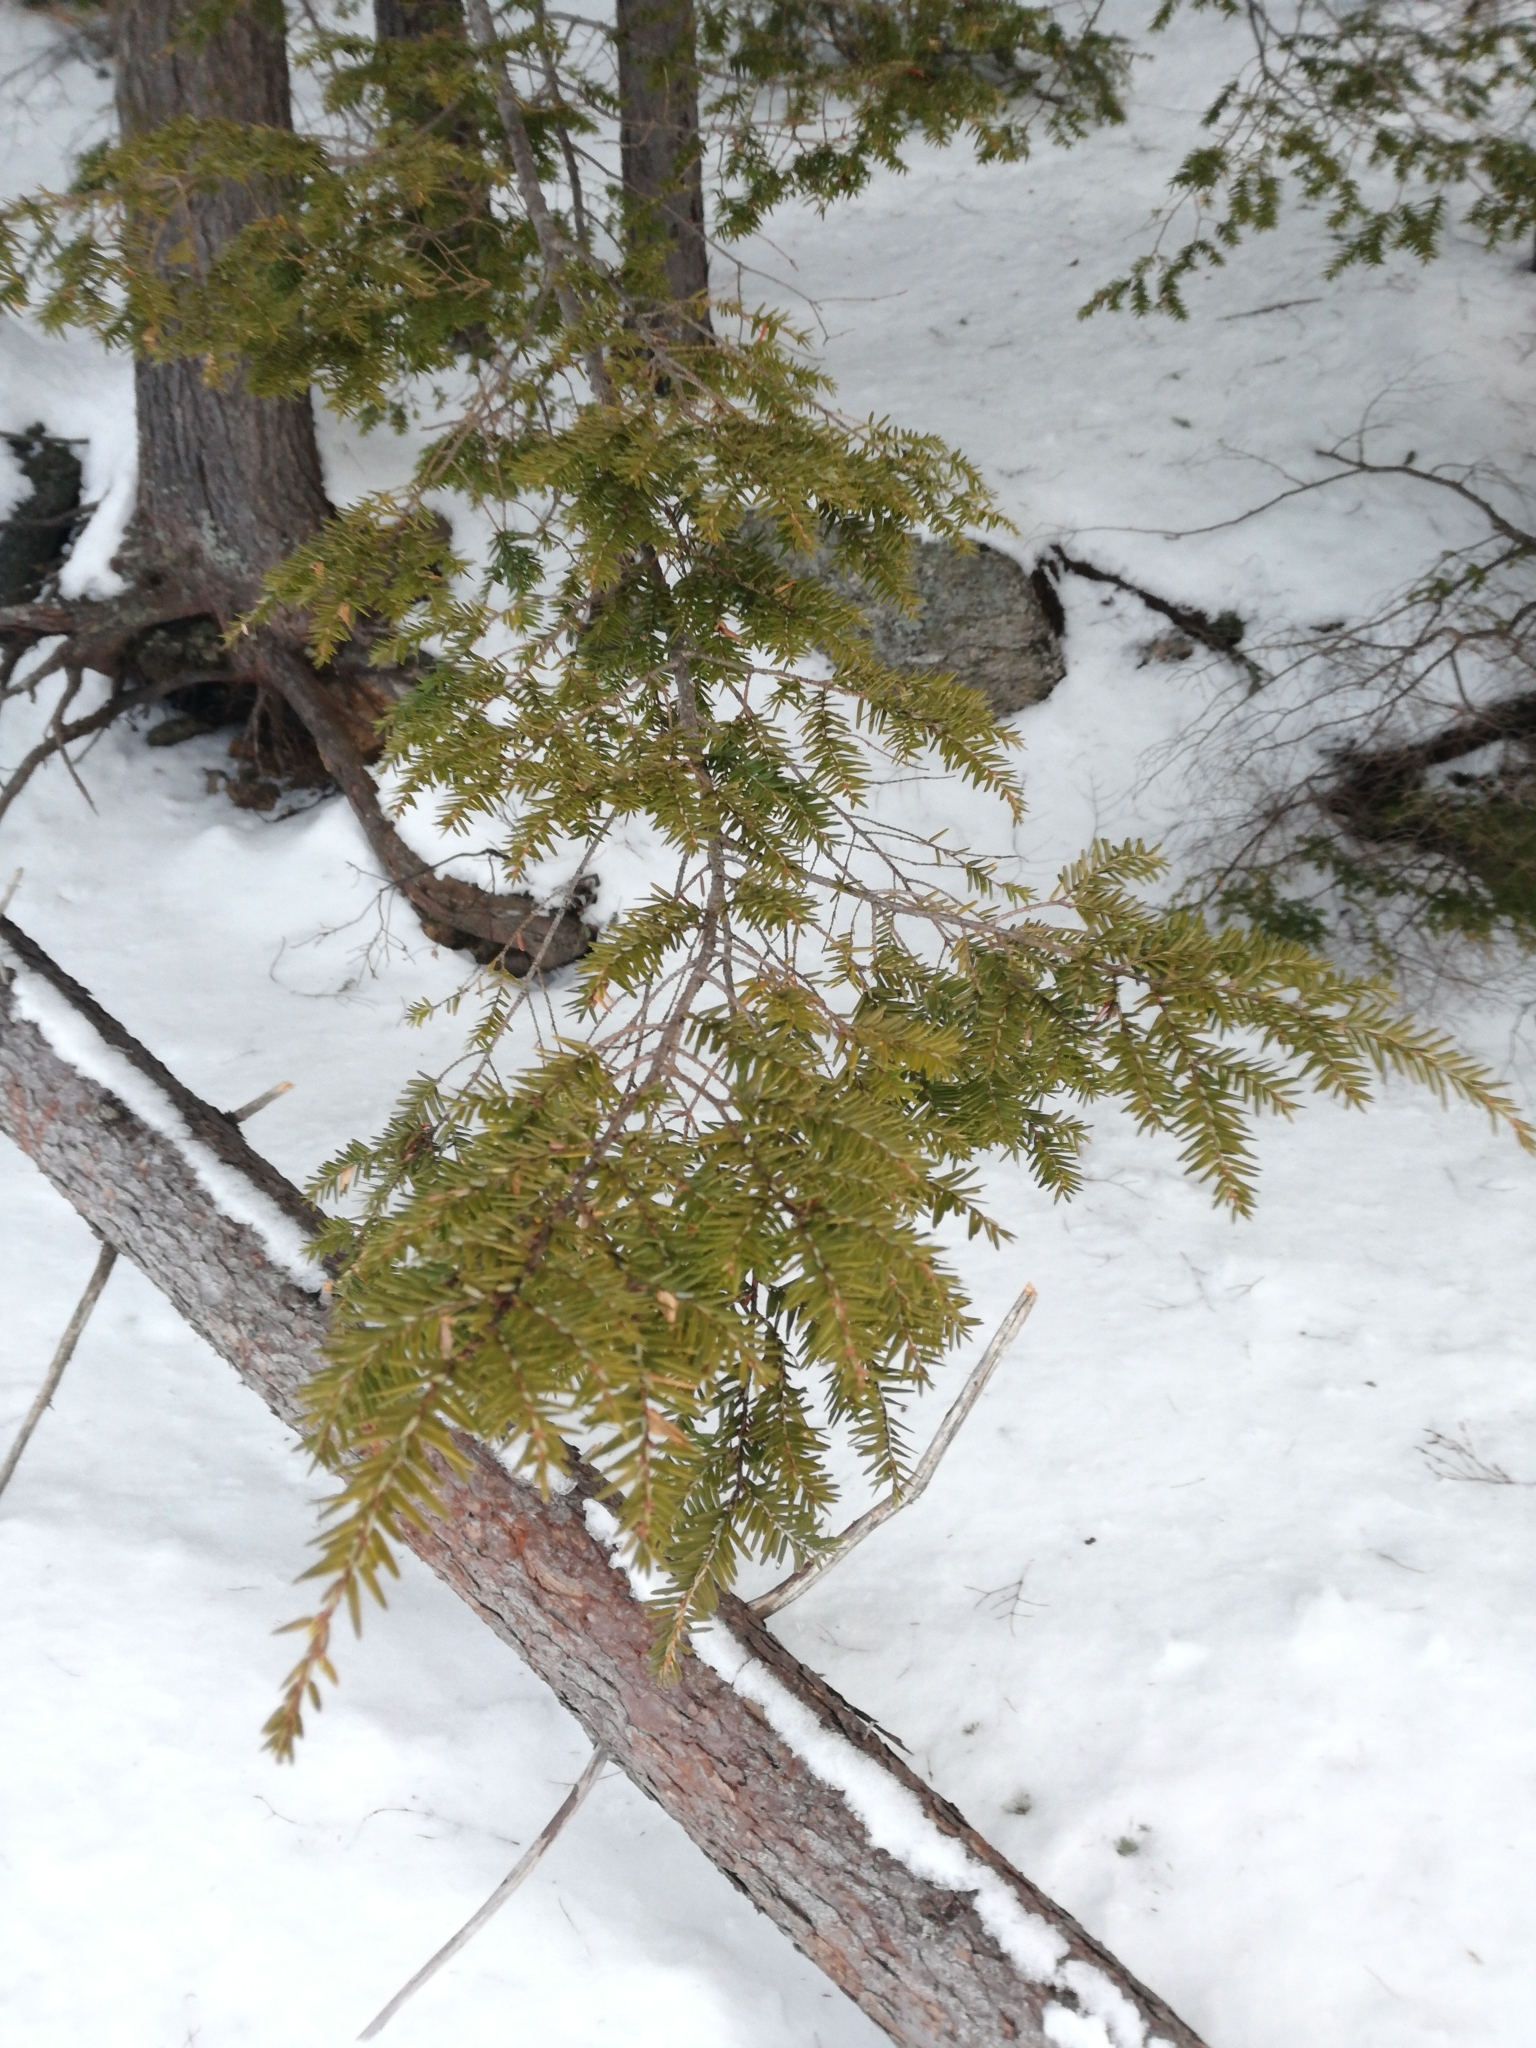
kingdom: Plantae
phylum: Tracheophyta
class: Pinopsida
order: Pinales
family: Pinaceae
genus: Tsuga
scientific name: Tsuga canadensis
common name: Eastern hemlock
